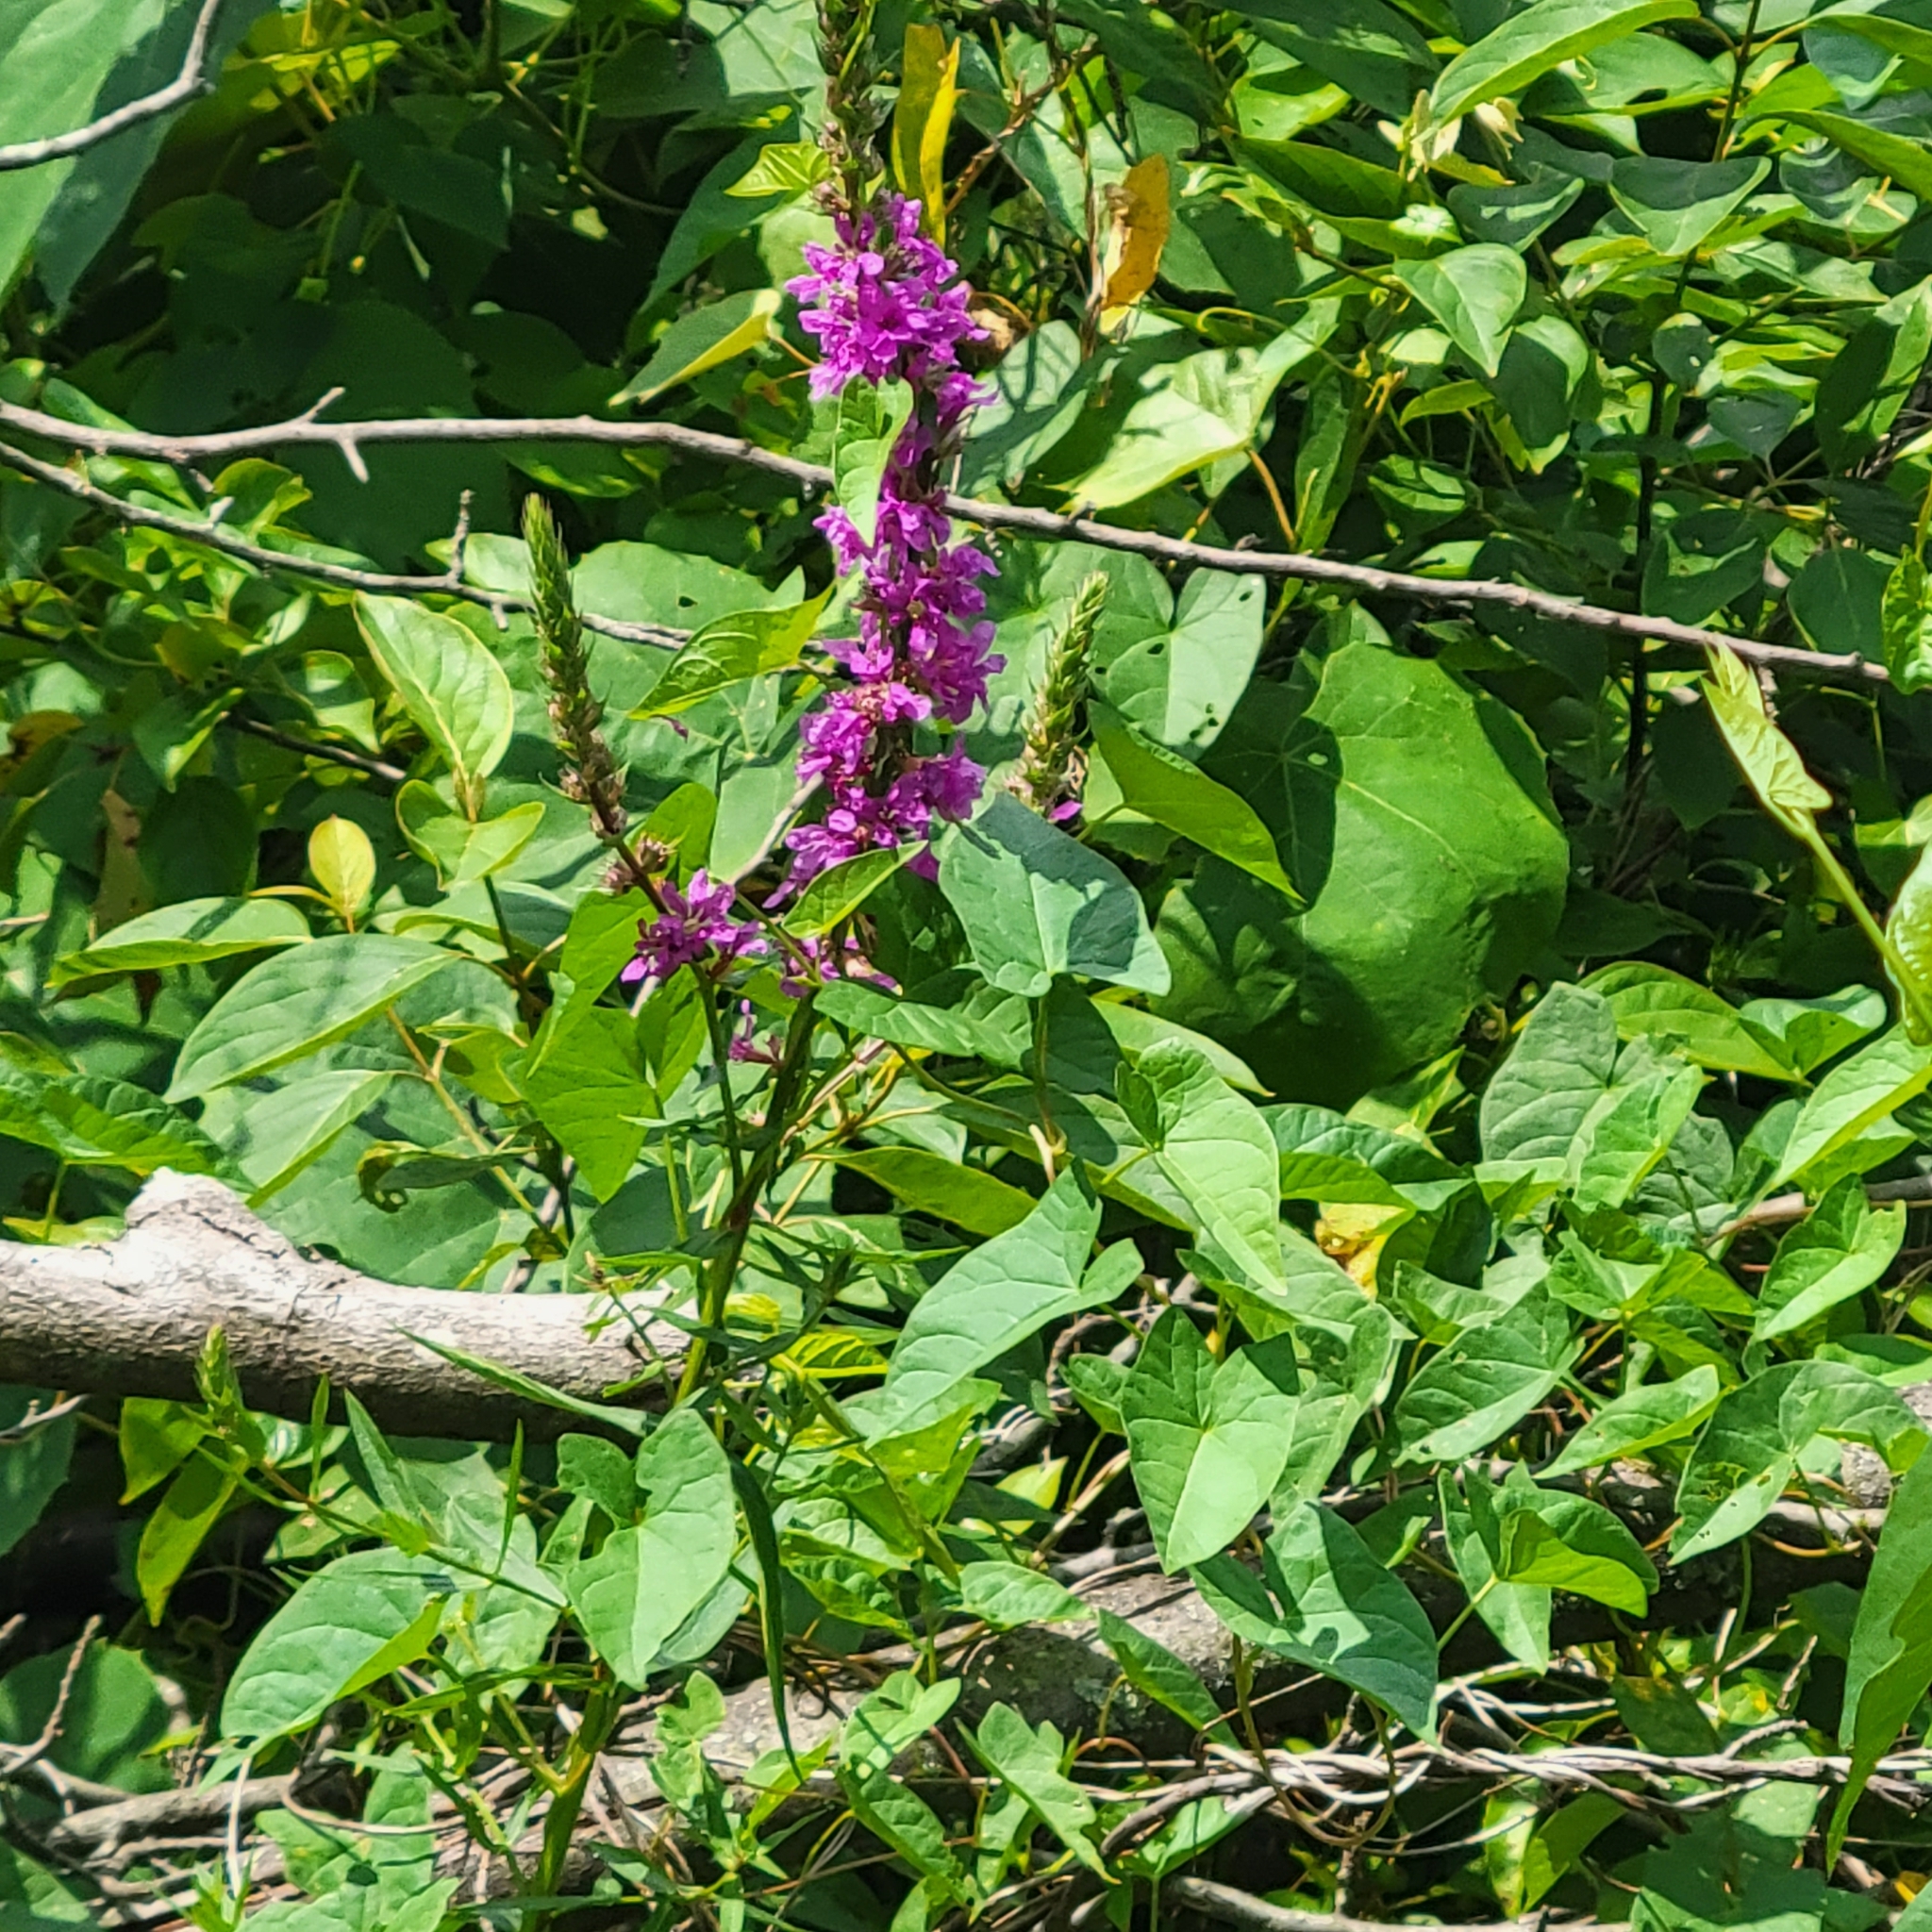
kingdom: Plantae
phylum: Tracheophyta
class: Magnoliopsida
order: Myrtales
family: Lythraceae
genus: Lythrum
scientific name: Lythrum salicaria
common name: Purple loosestrife
